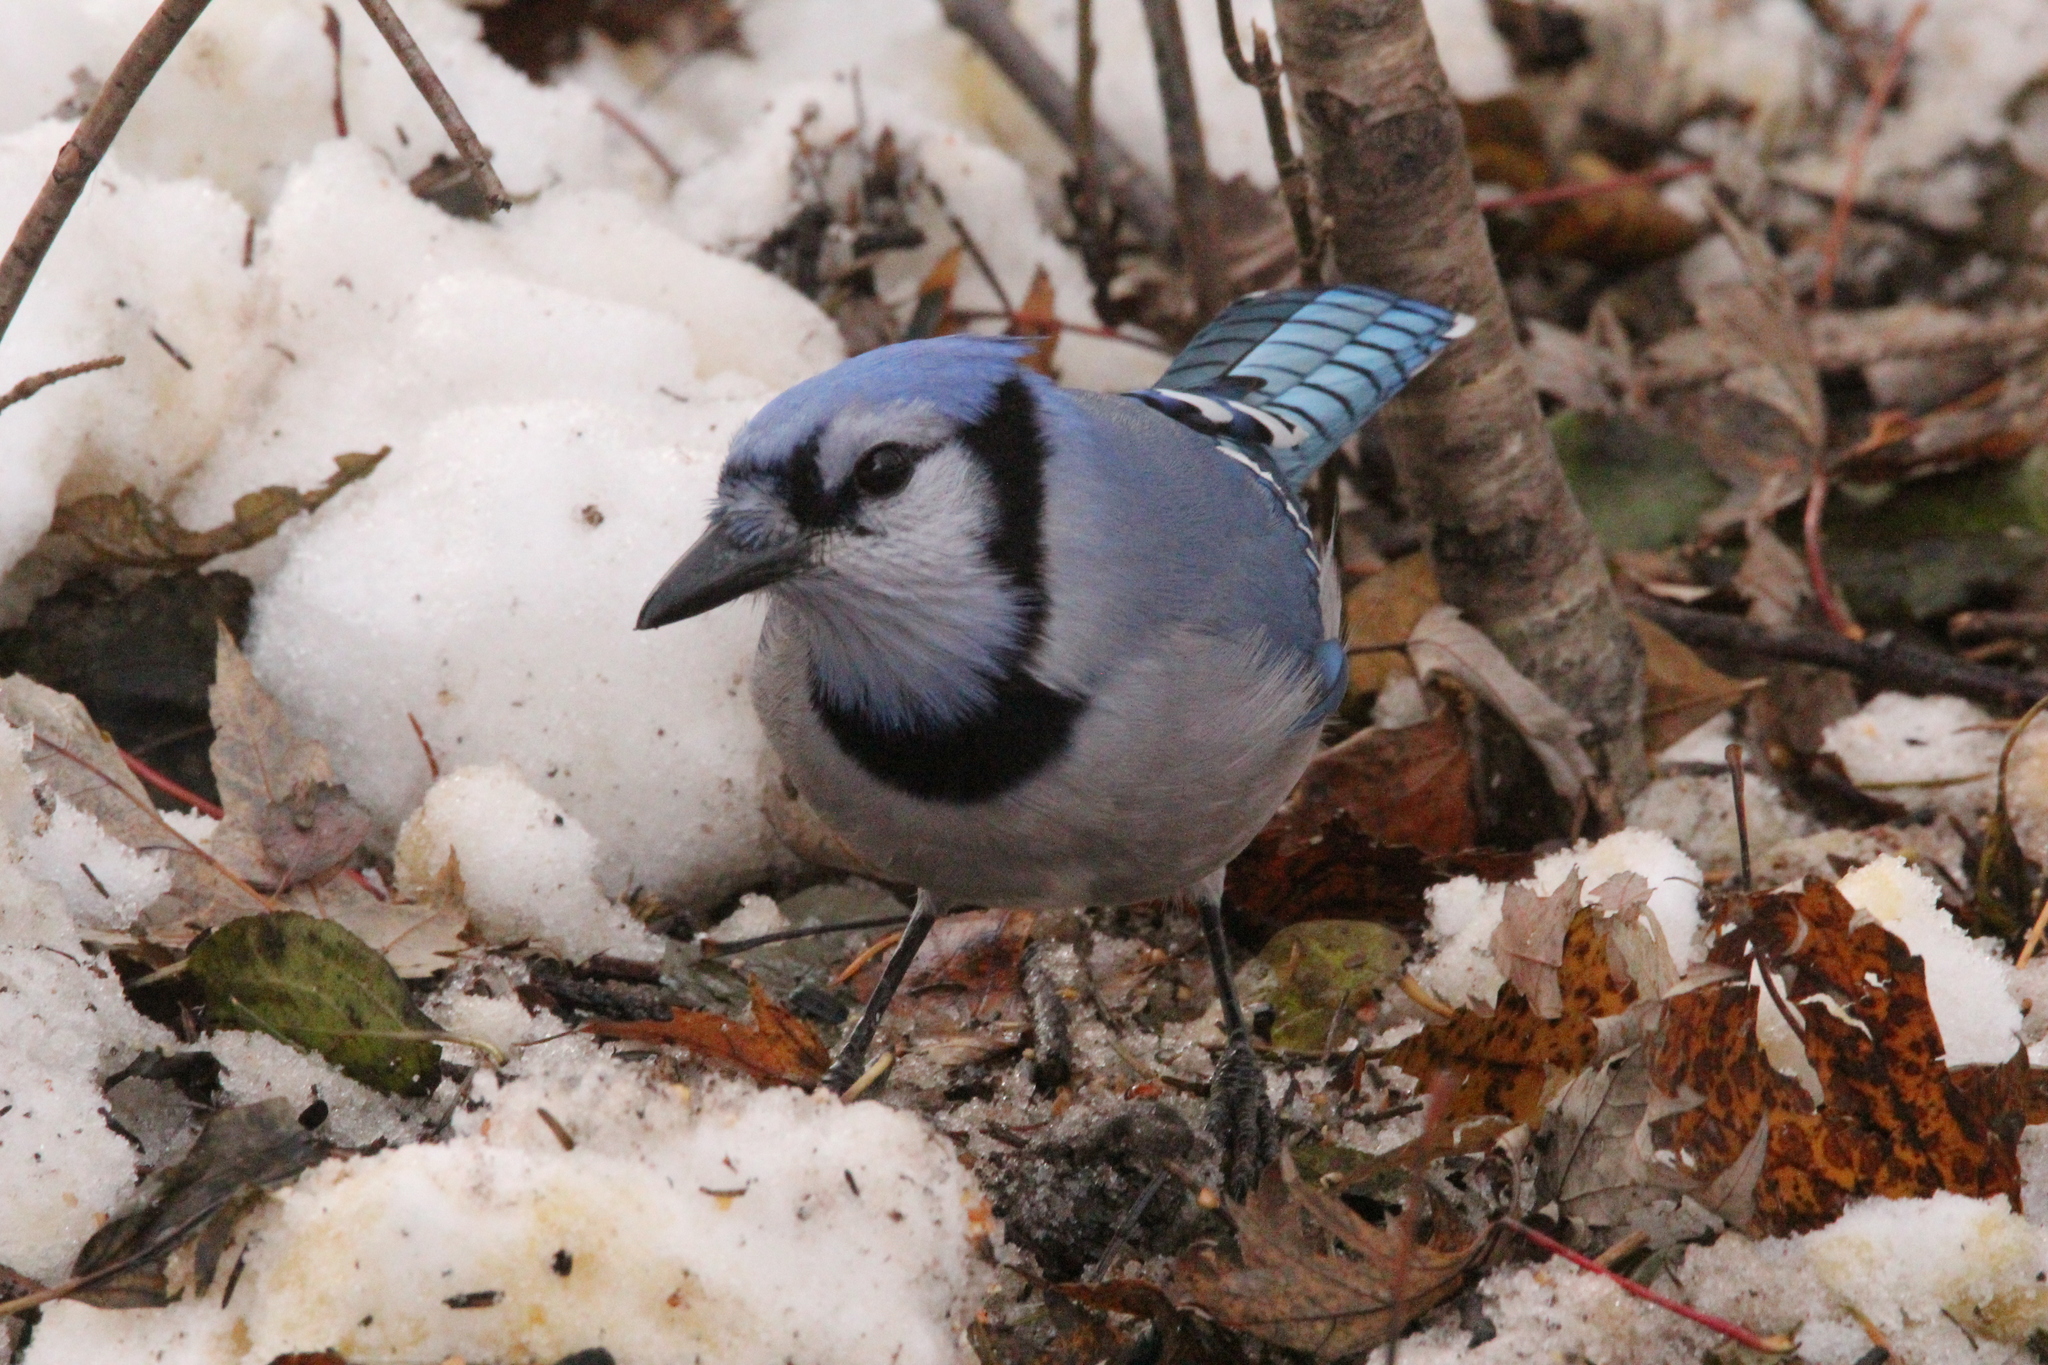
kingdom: Animalia
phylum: Chordata
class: Aves
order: Passeriformes
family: Corvidae
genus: Cyanocitta
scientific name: Cyanocitta cristata
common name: Blue jay
